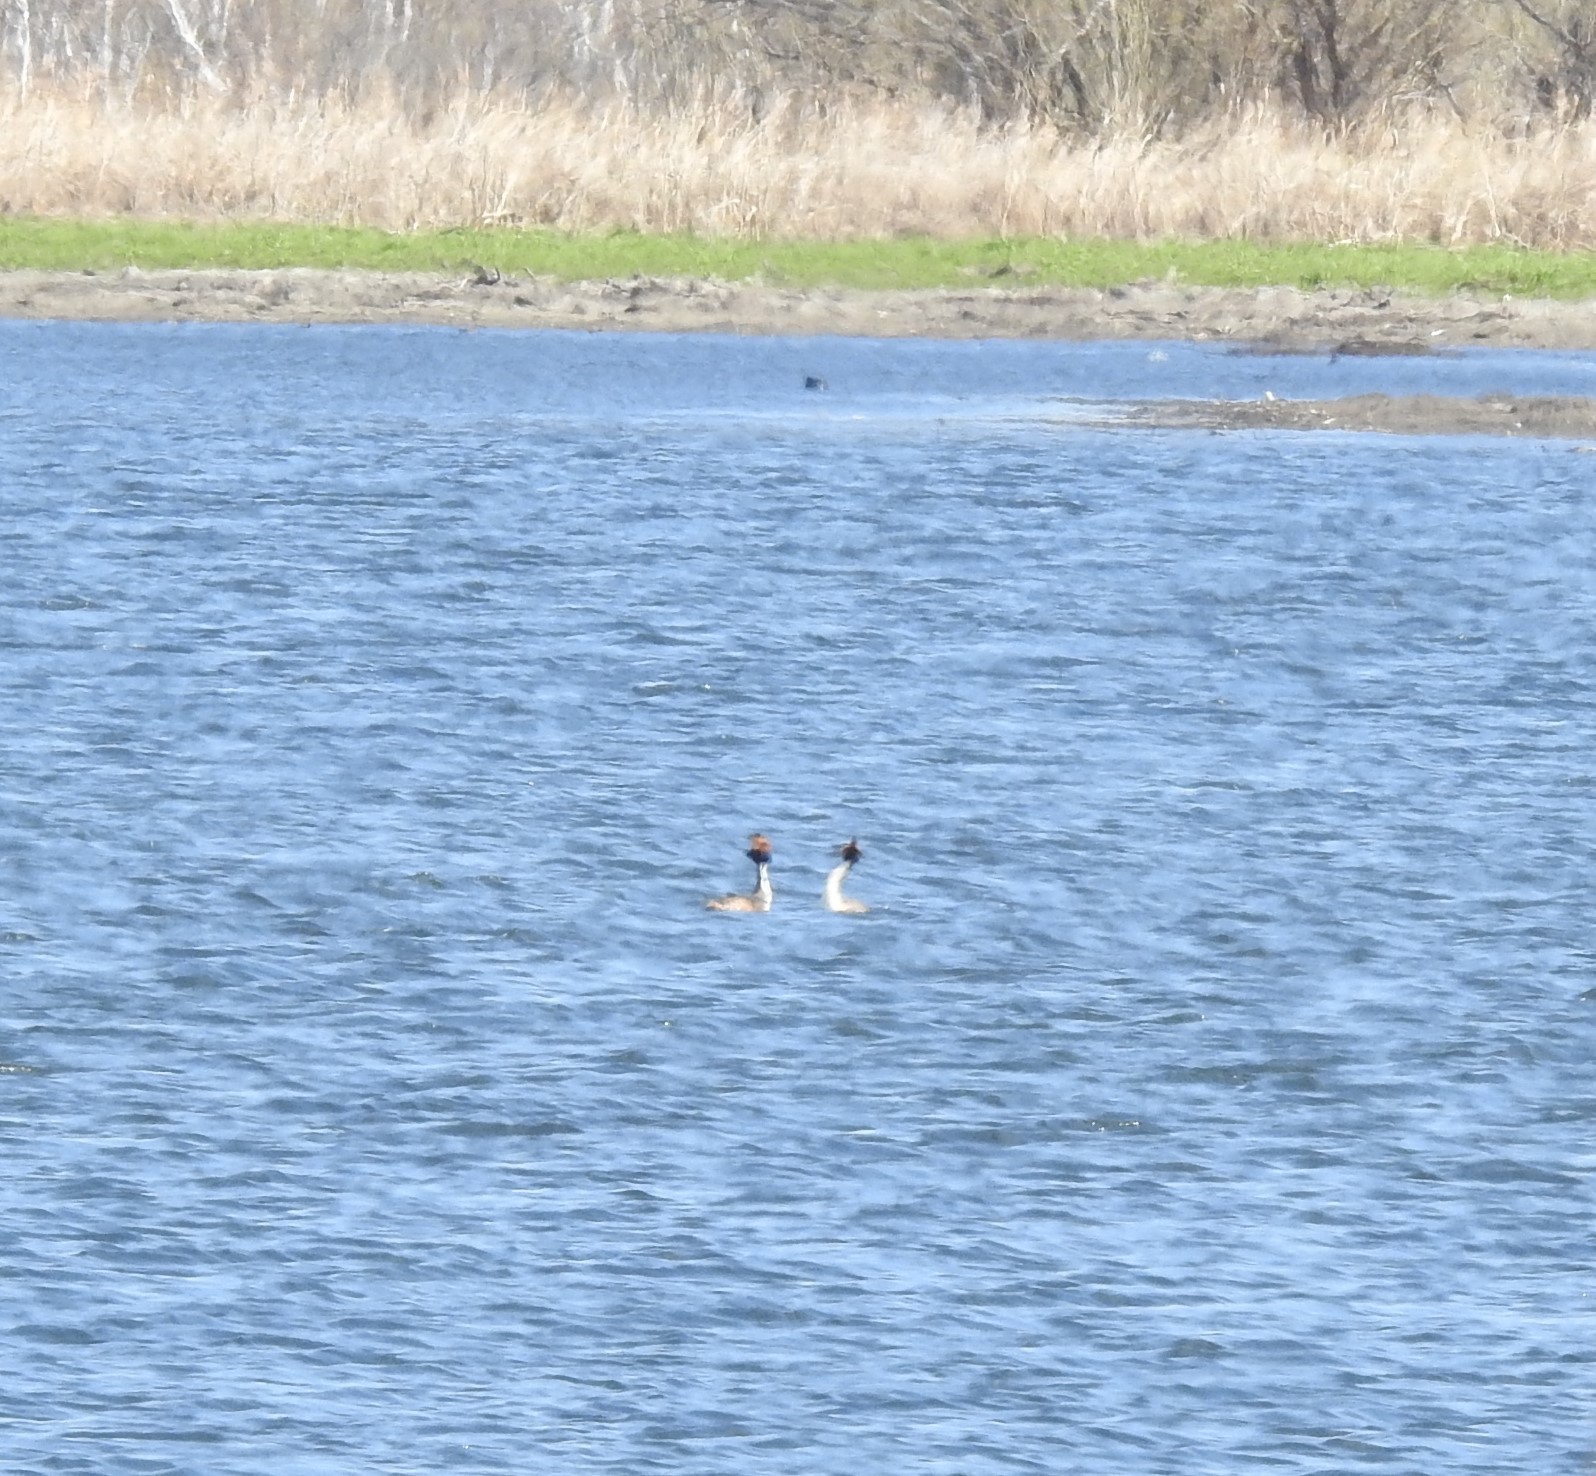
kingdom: Animalia
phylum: Chordata
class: Aves
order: Podicipediformes
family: Podicipedidae
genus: Podiceps
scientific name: Podiceps cristatus
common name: Great crested grebe
